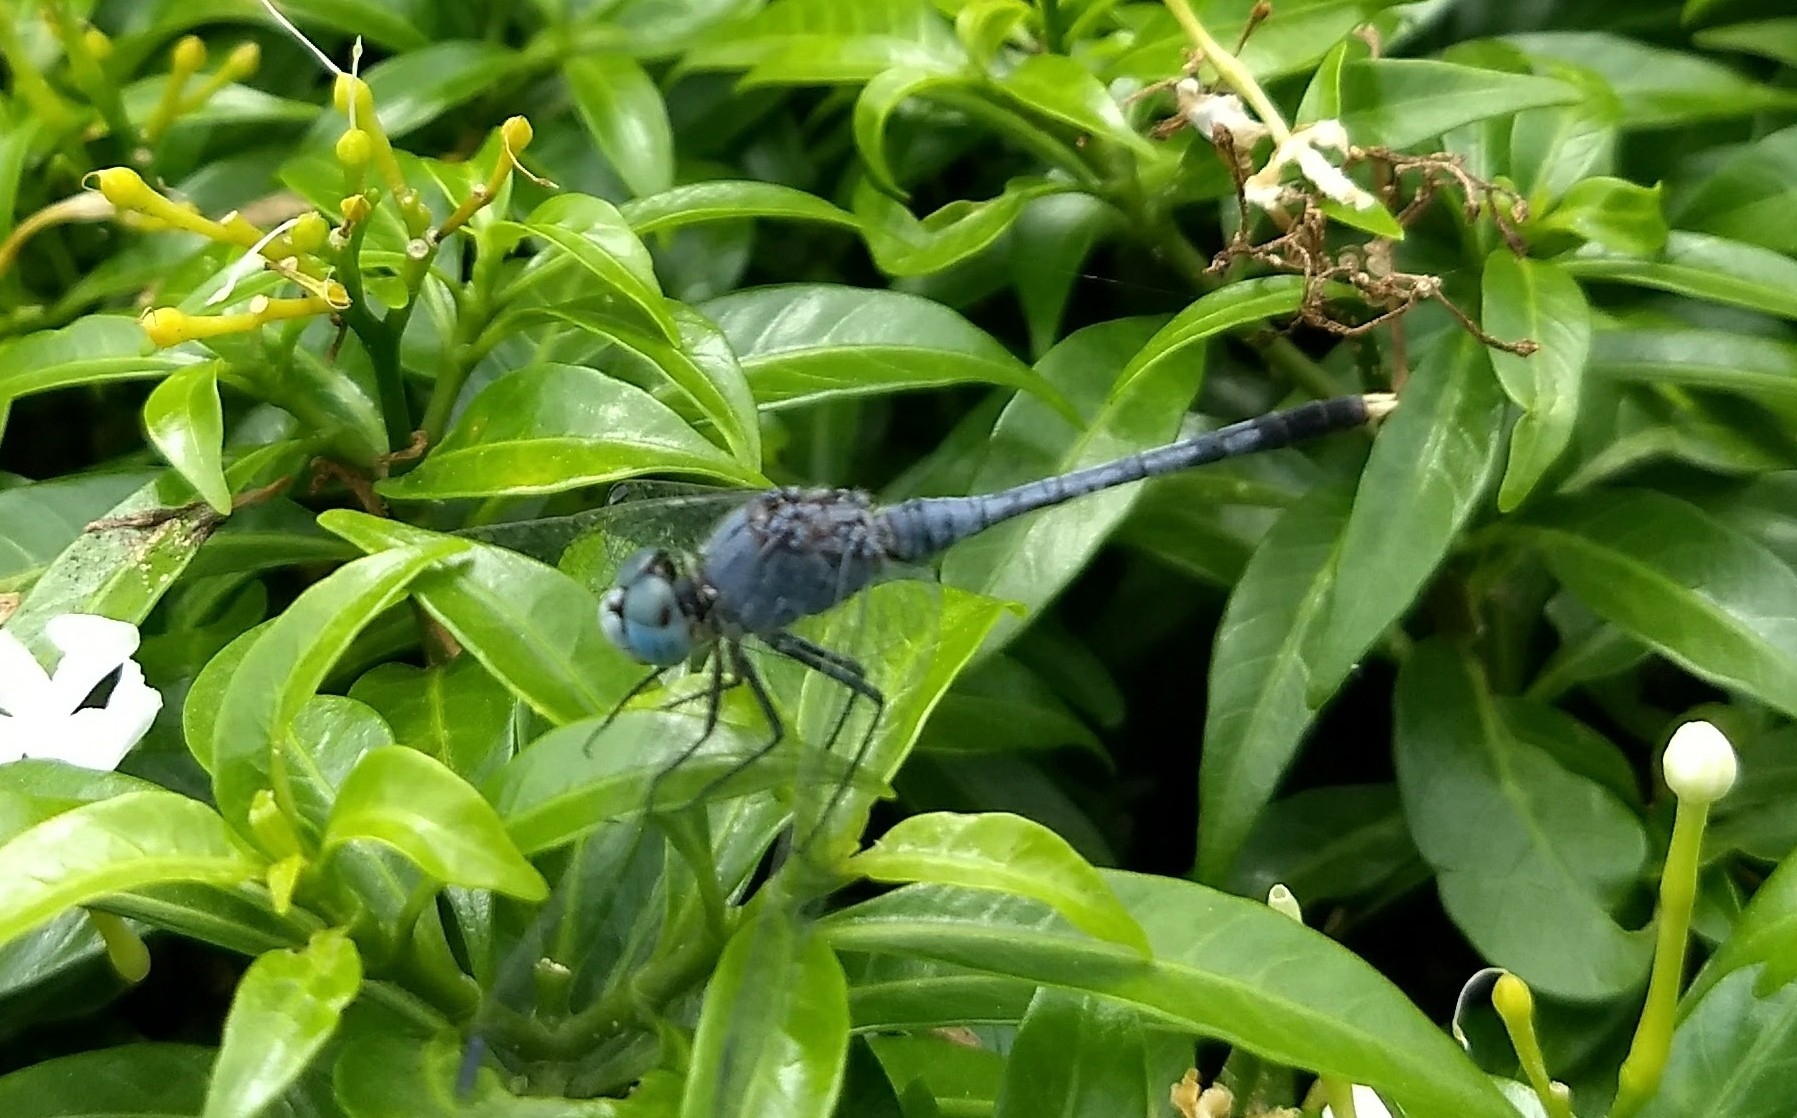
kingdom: Animalia
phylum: Arthropoda
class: Insecta
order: Odonata
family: Libellulidae
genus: Diplacodes
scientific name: Diplacodes trivialis
